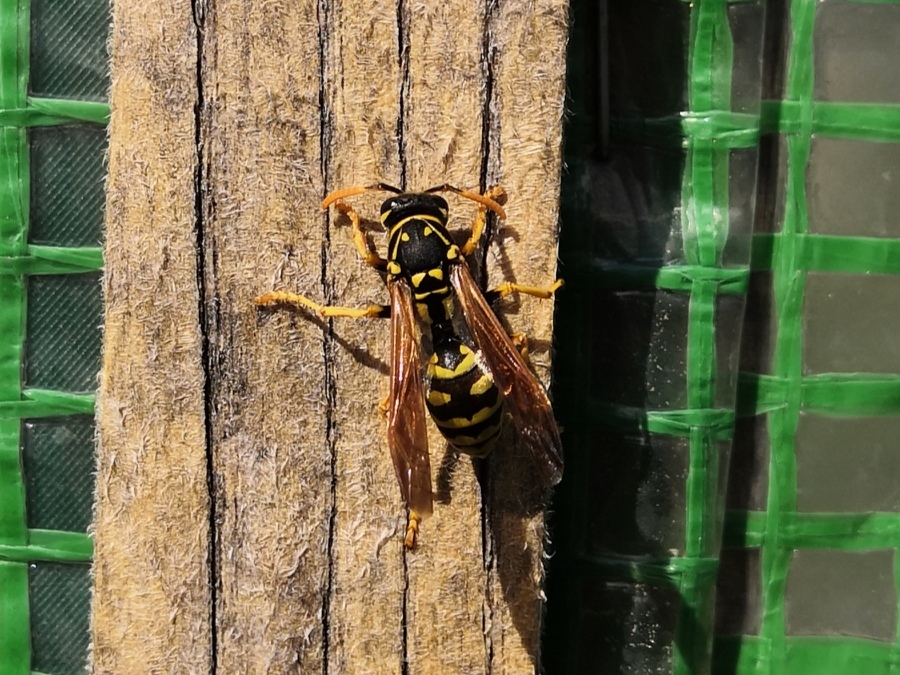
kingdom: Animalia
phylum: Arthropoda
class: Insecta
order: Hymenoptera
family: Eumenidae
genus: Polistes
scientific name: Polistes dominula
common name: Paper wasp
